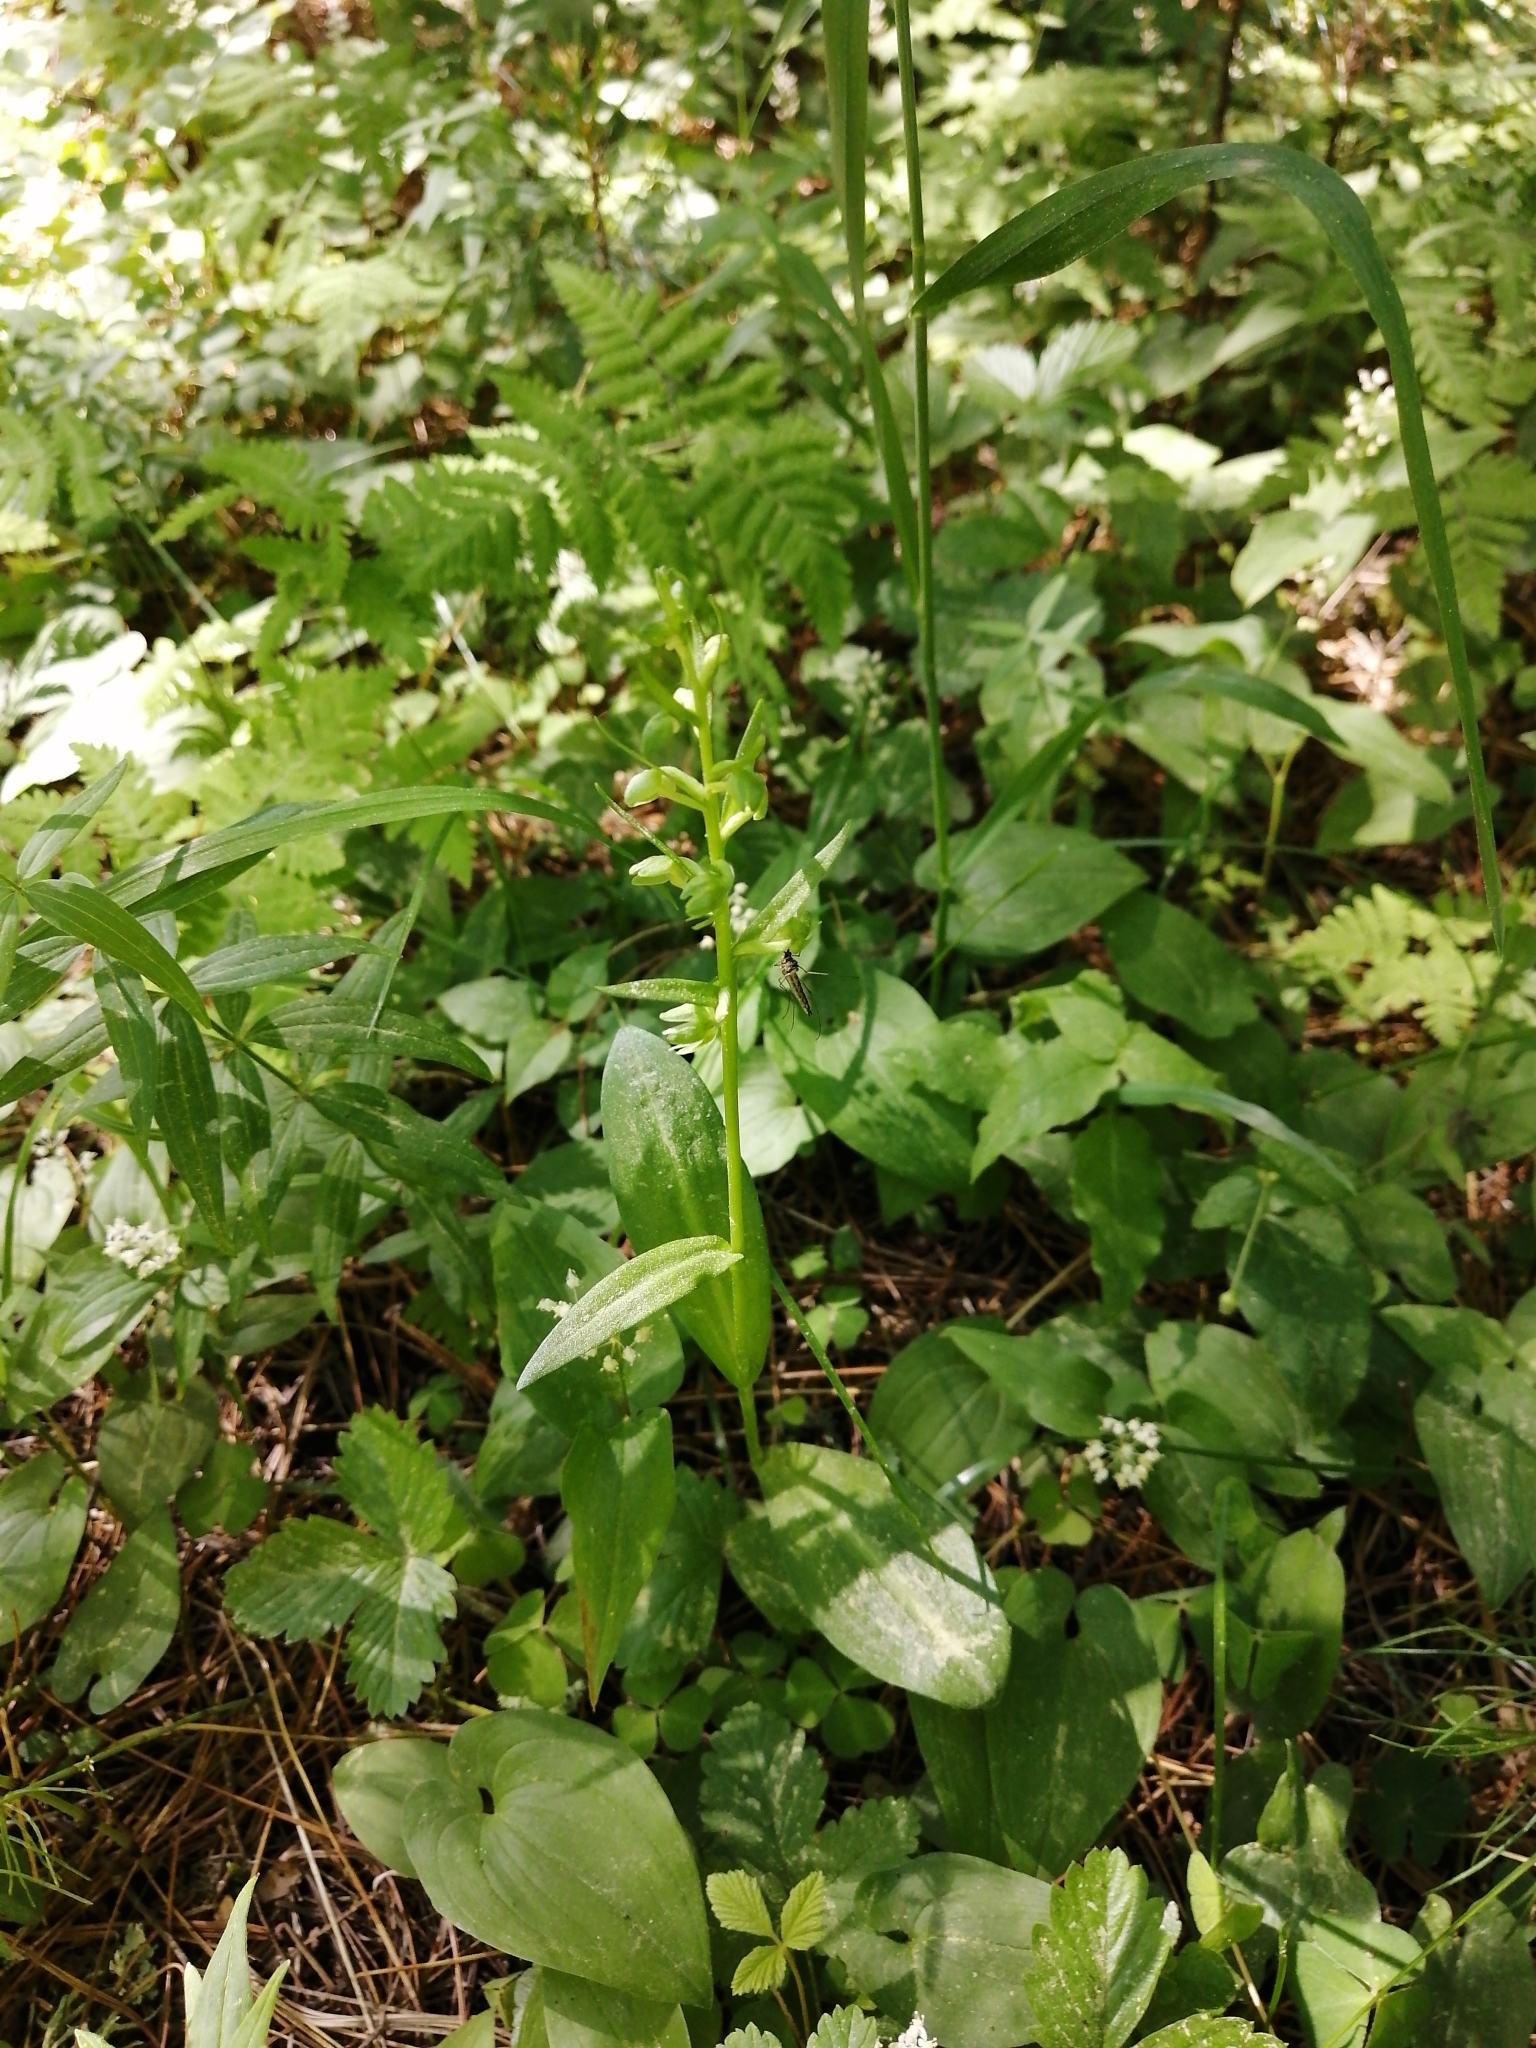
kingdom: Plantae
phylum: Tracheophyta
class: Liliopsida
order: Asparagales
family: Orchidaceae
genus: Dactylorhiza
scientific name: Dactylorhiza viridis
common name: Longbract frog orchid
